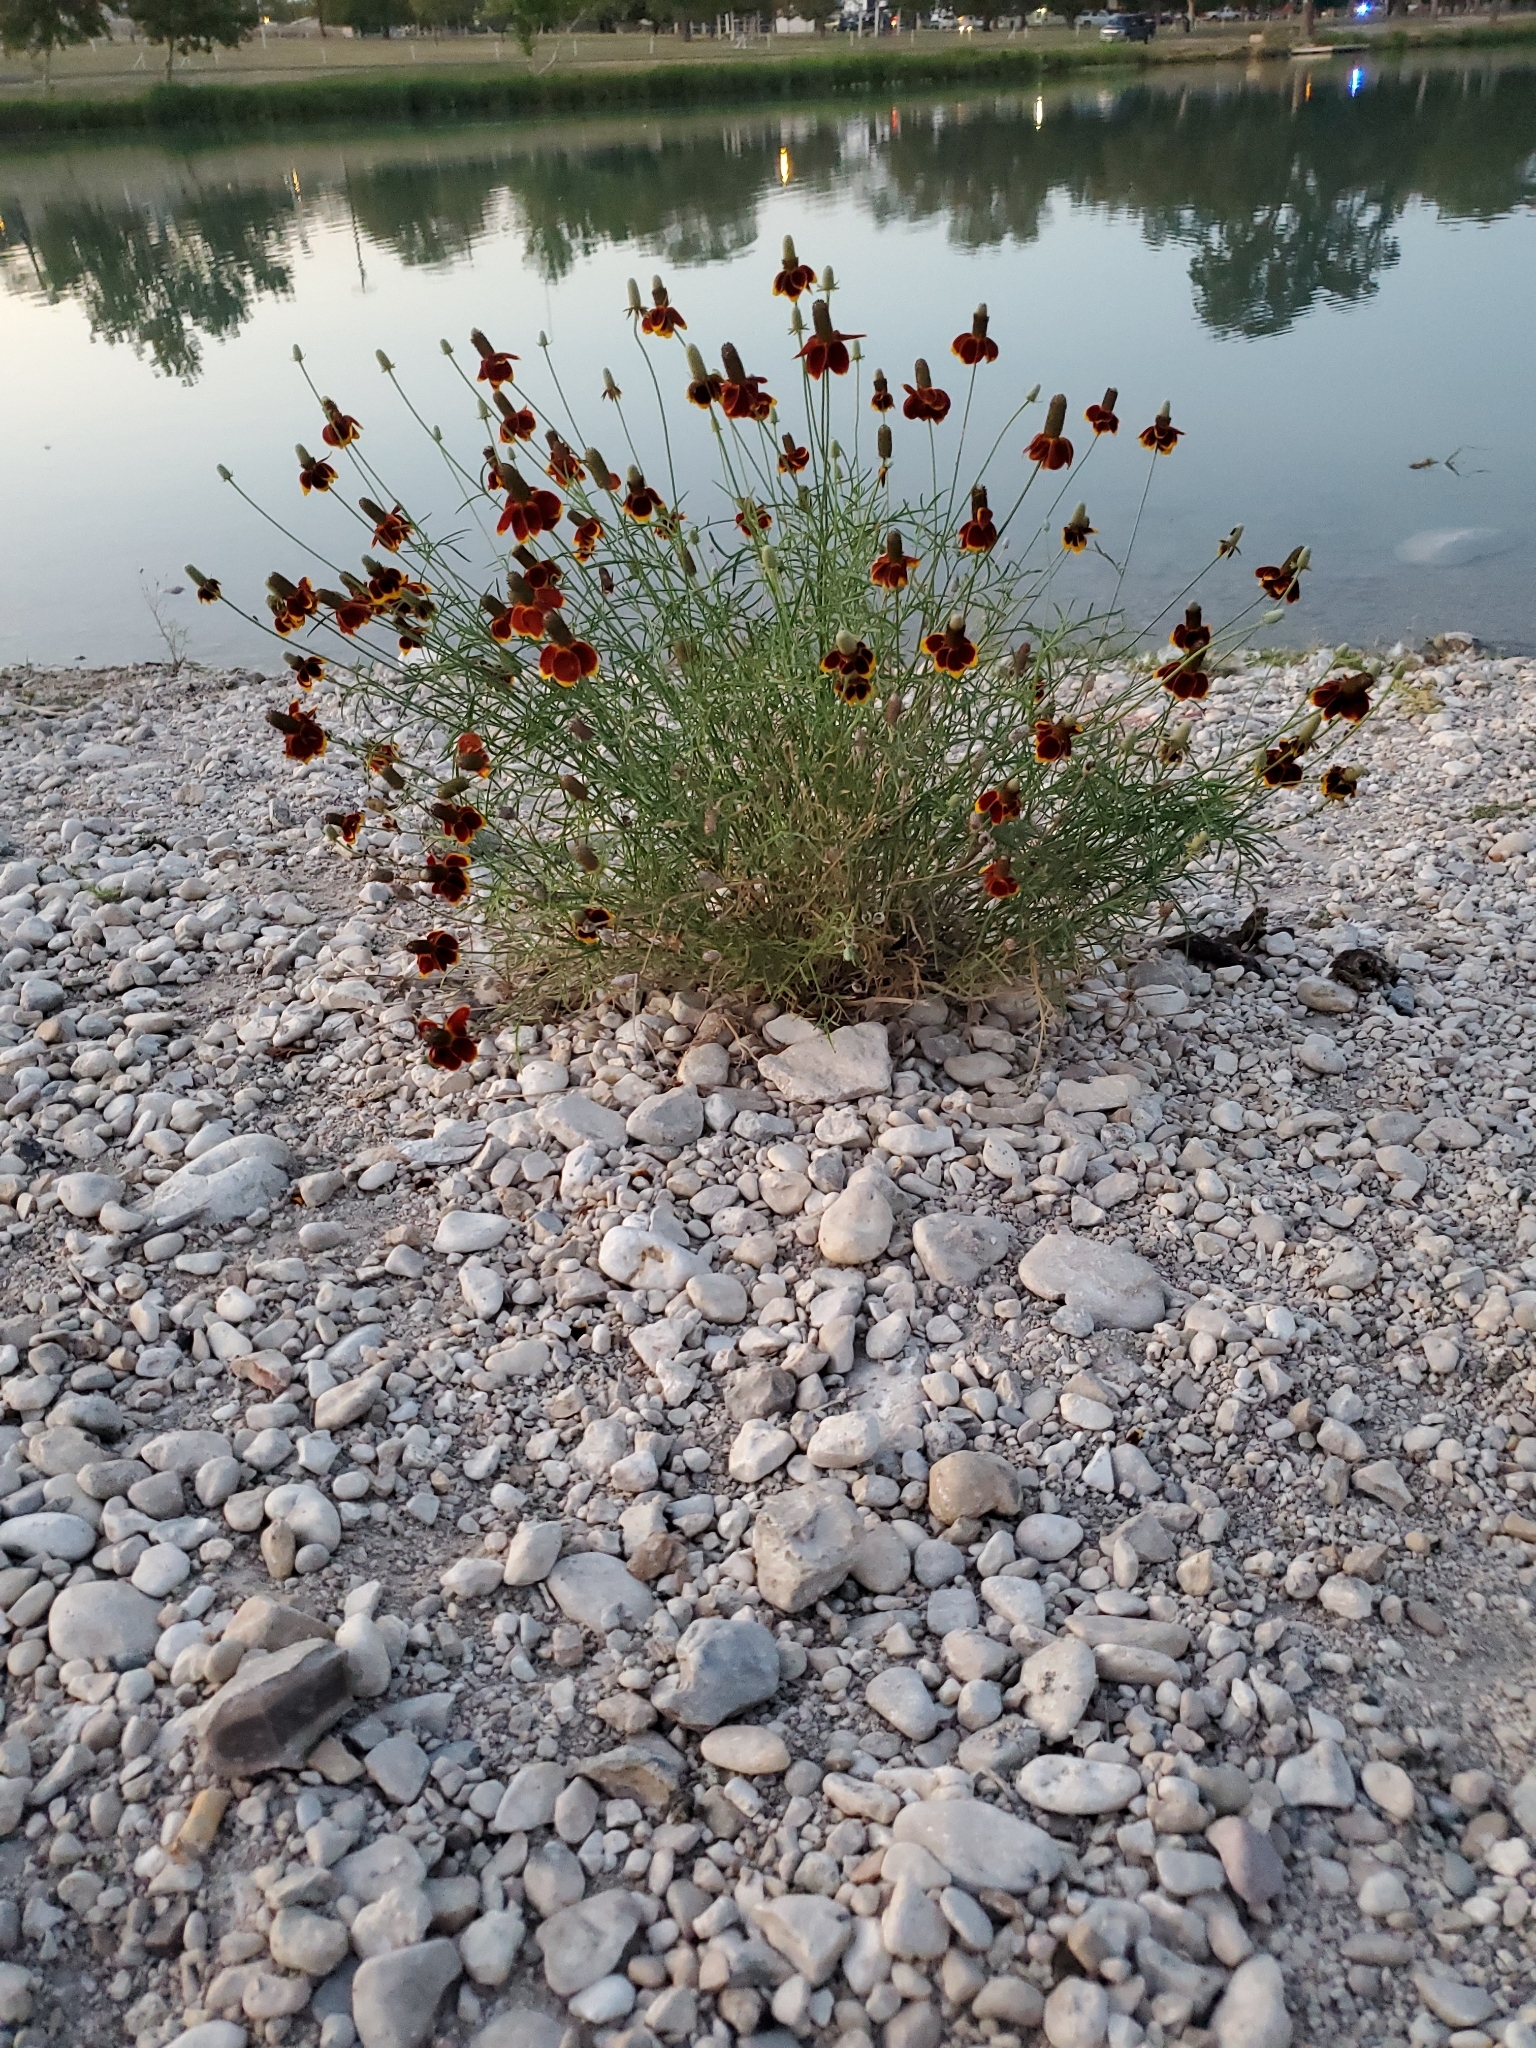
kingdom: Plantae
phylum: Tracheophyta
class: Magnoliopsida
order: Asterales
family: Asteraceae
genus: Ratibida
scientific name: Ratibida columnifera
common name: Prairie coneflower
